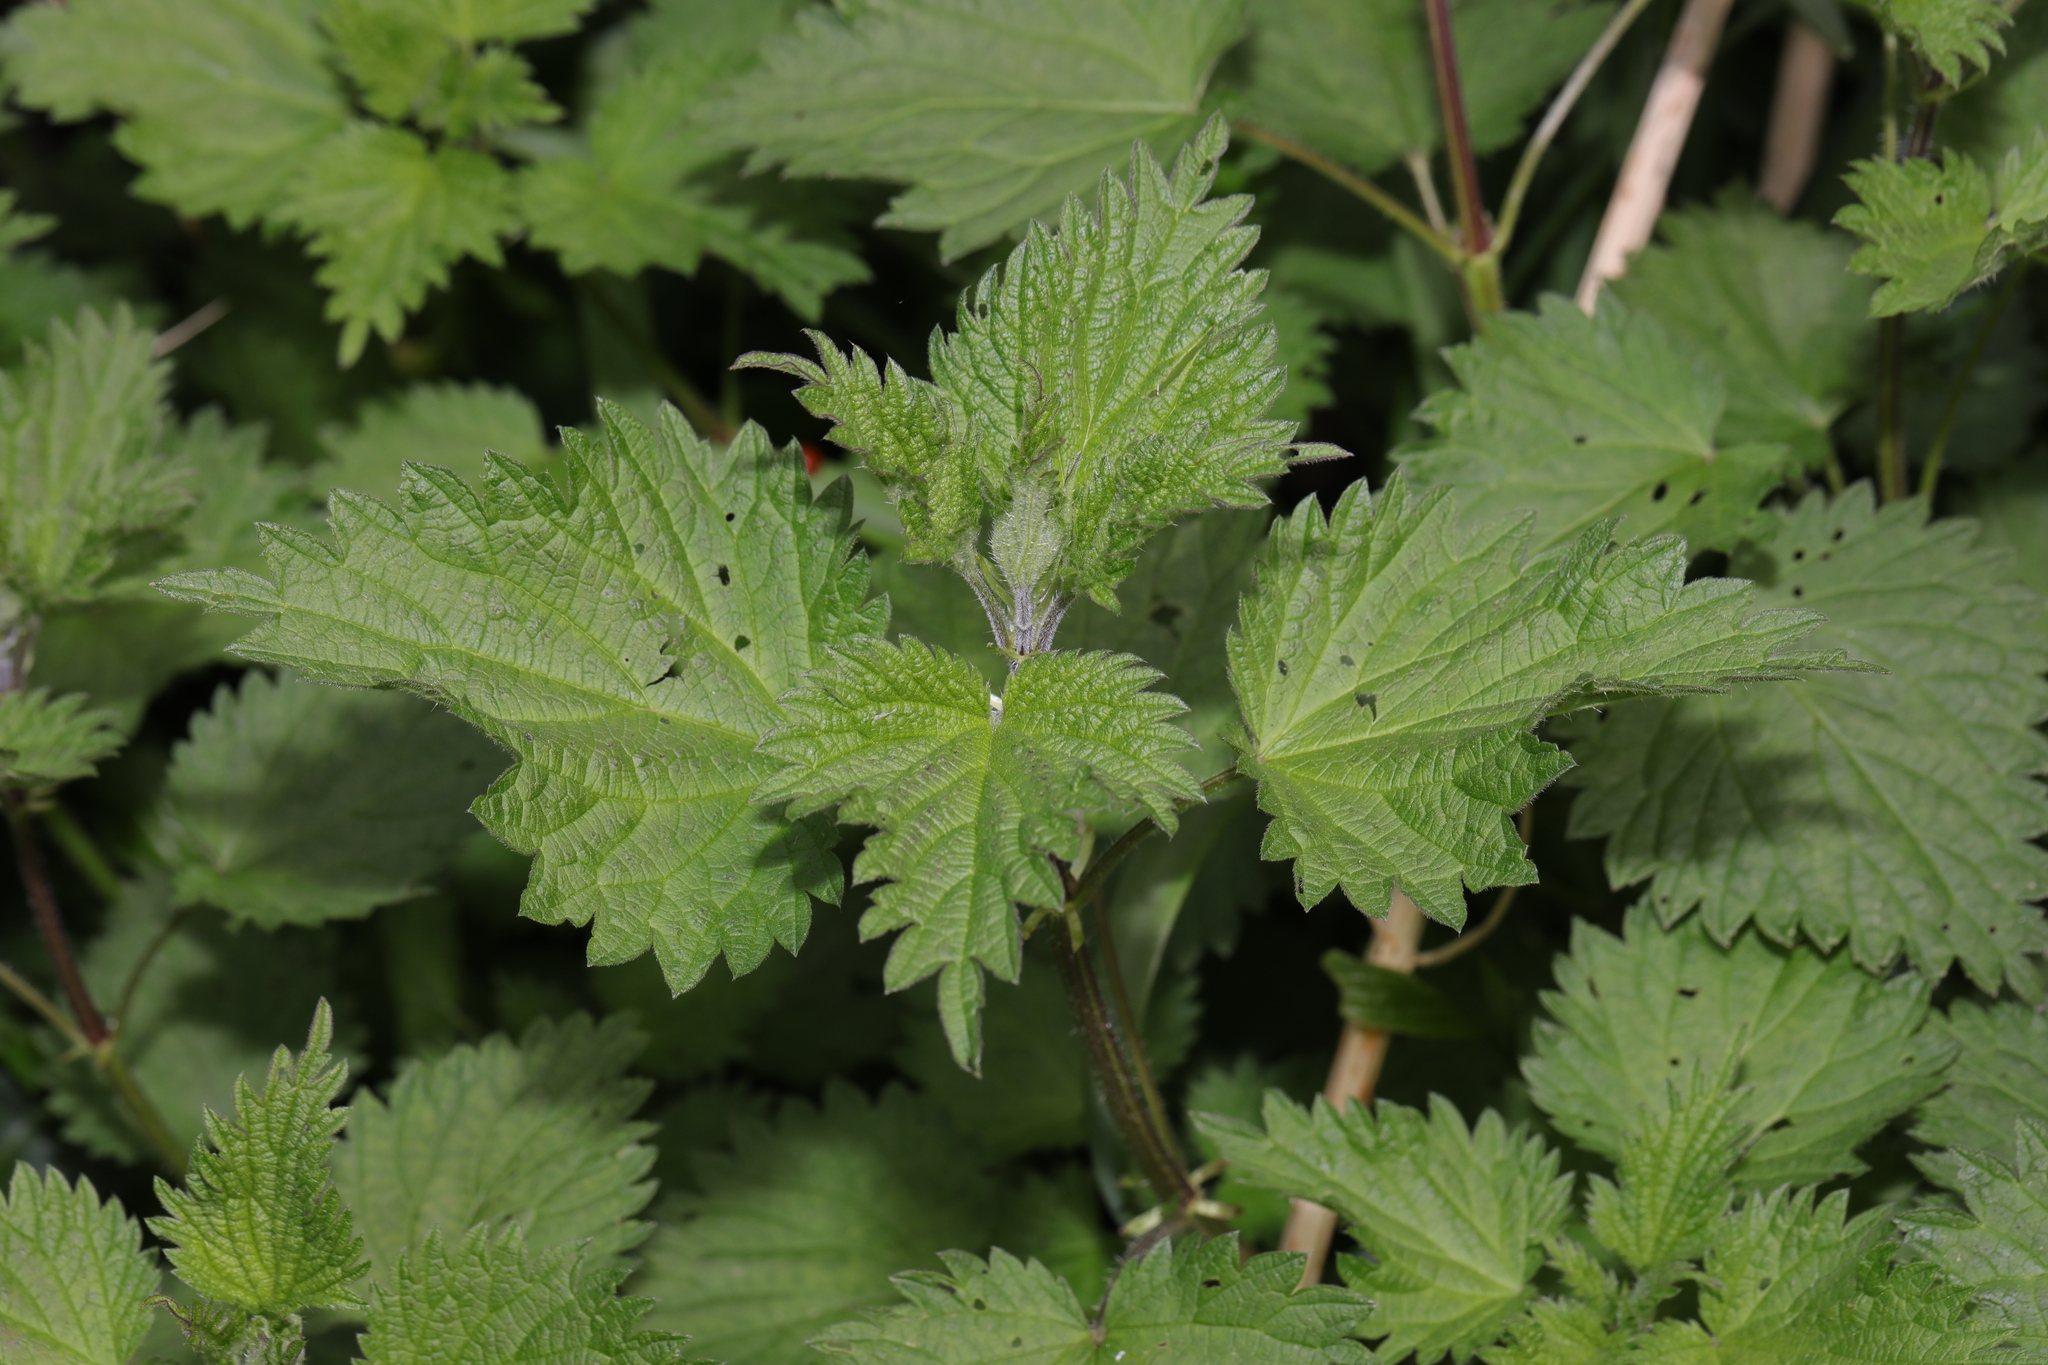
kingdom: Plantae
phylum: Tracheophyta
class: Magnoliopsida
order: Rosales
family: Urticaceae
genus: Urtica
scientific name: Urtica dioica
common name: Common nettle
